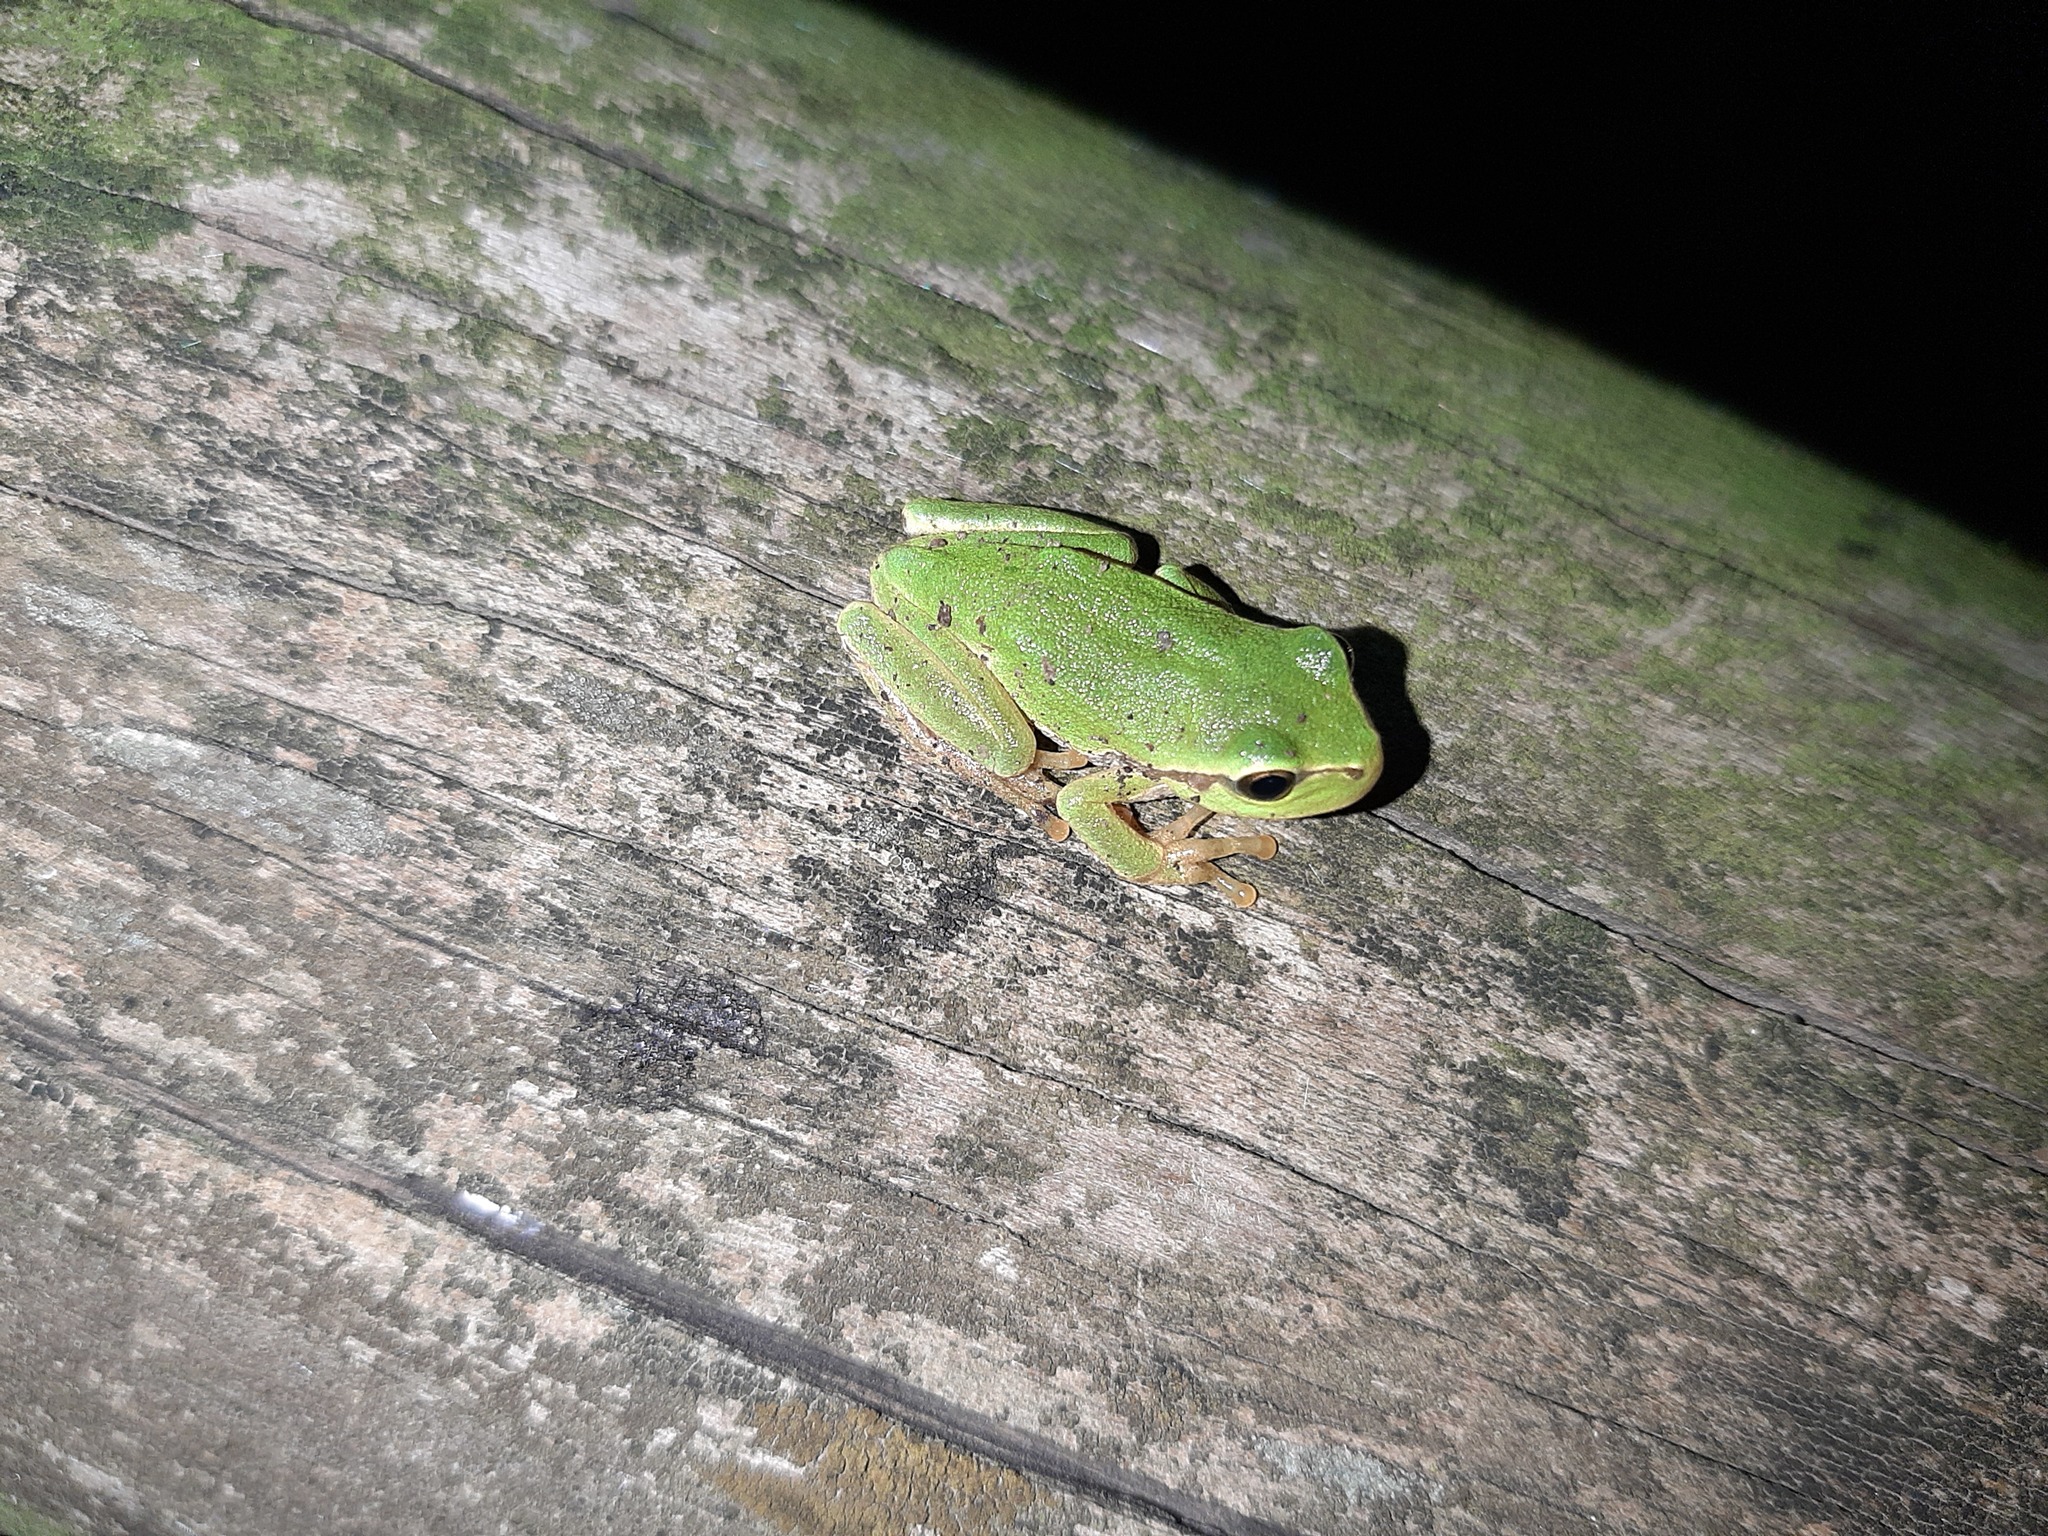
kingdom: Animalia
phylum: Chordata
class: Amphibia
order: Anura
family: Hylidae
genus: Hyla
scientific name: Hyla intermedia
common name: Italian tree frog
